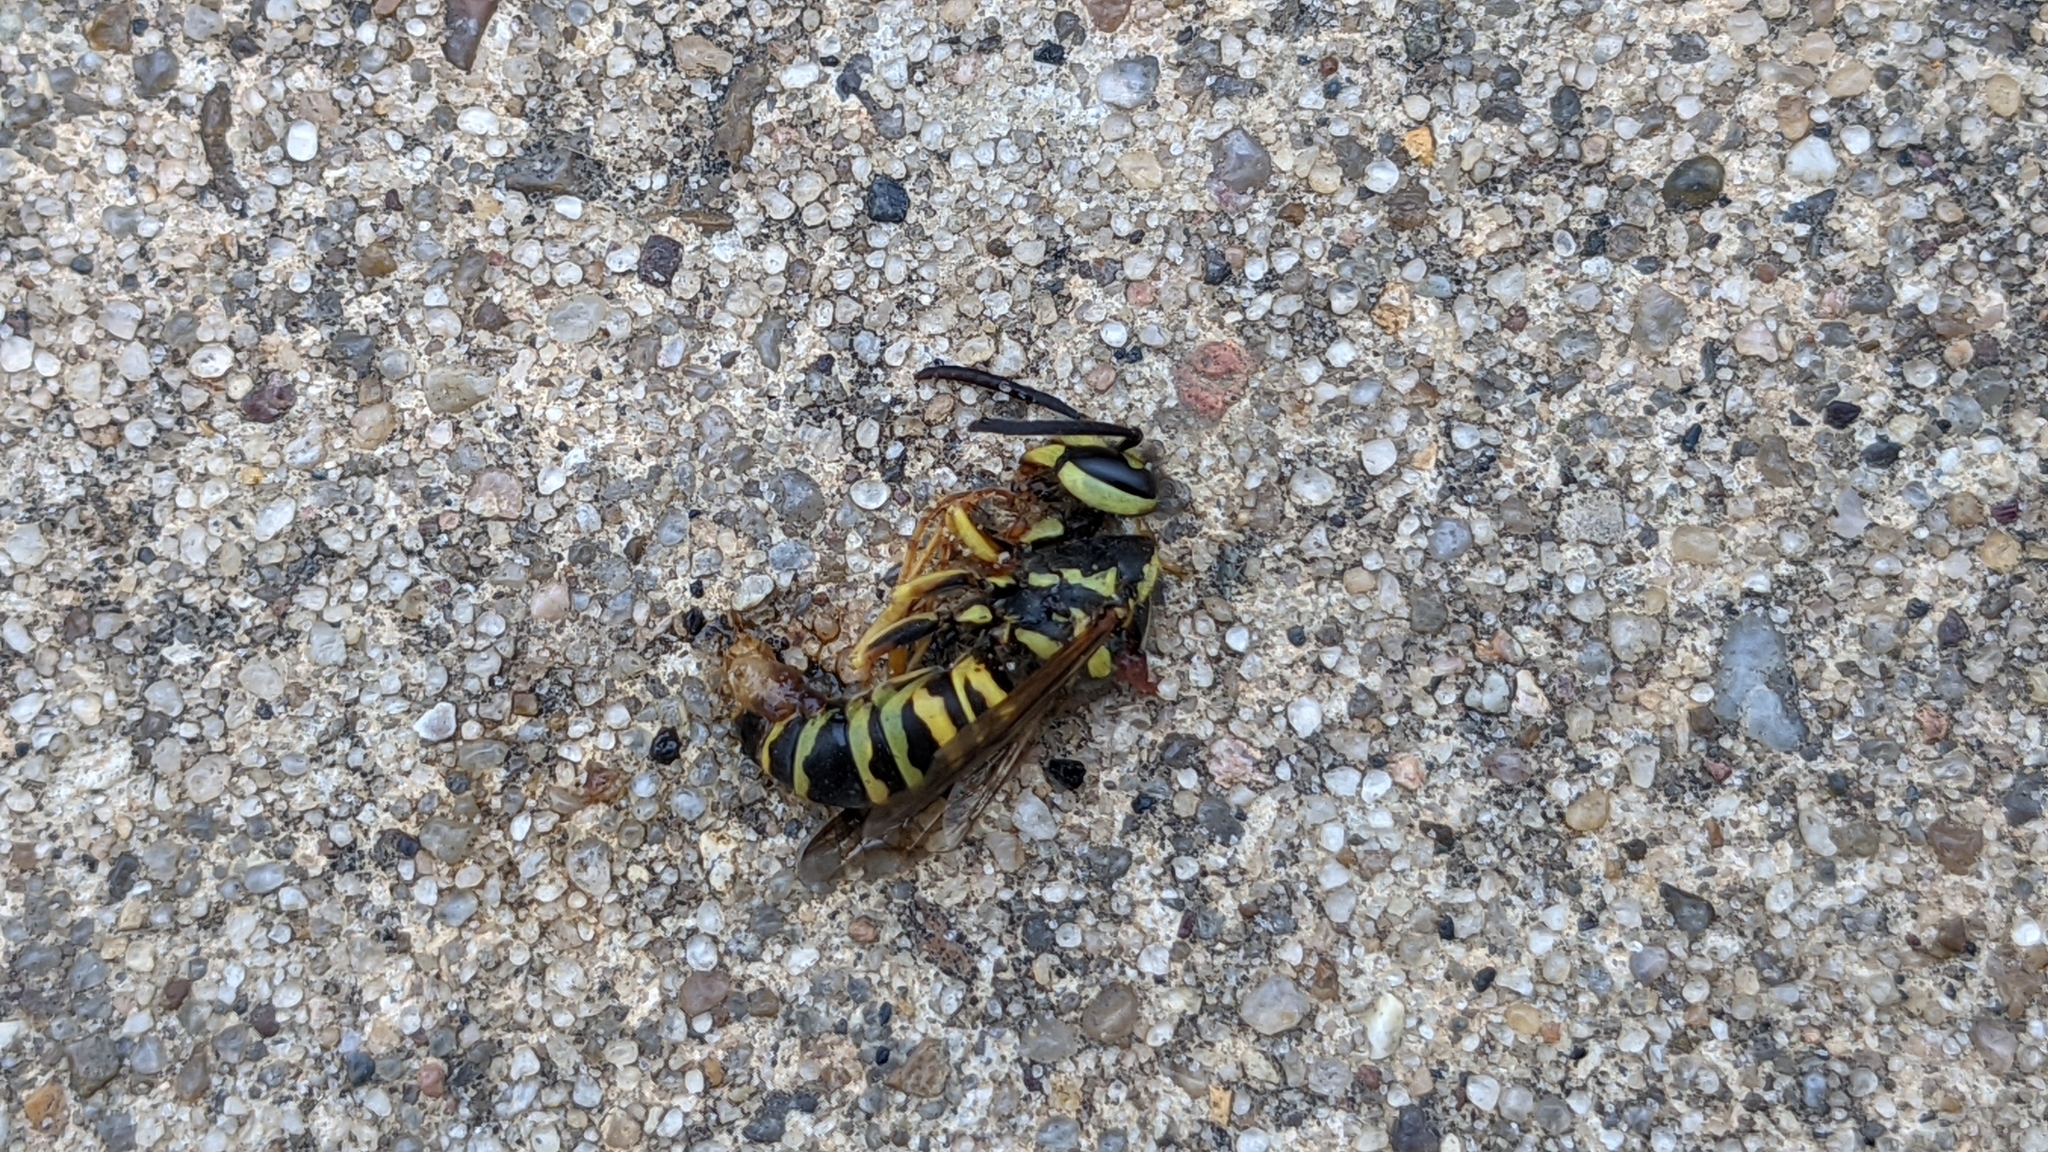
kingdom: Animalia
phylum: Arthropoda
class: Insecta
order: Hymenoptera
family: Vespidae
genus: Vespula
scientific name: Vespula squamosa
